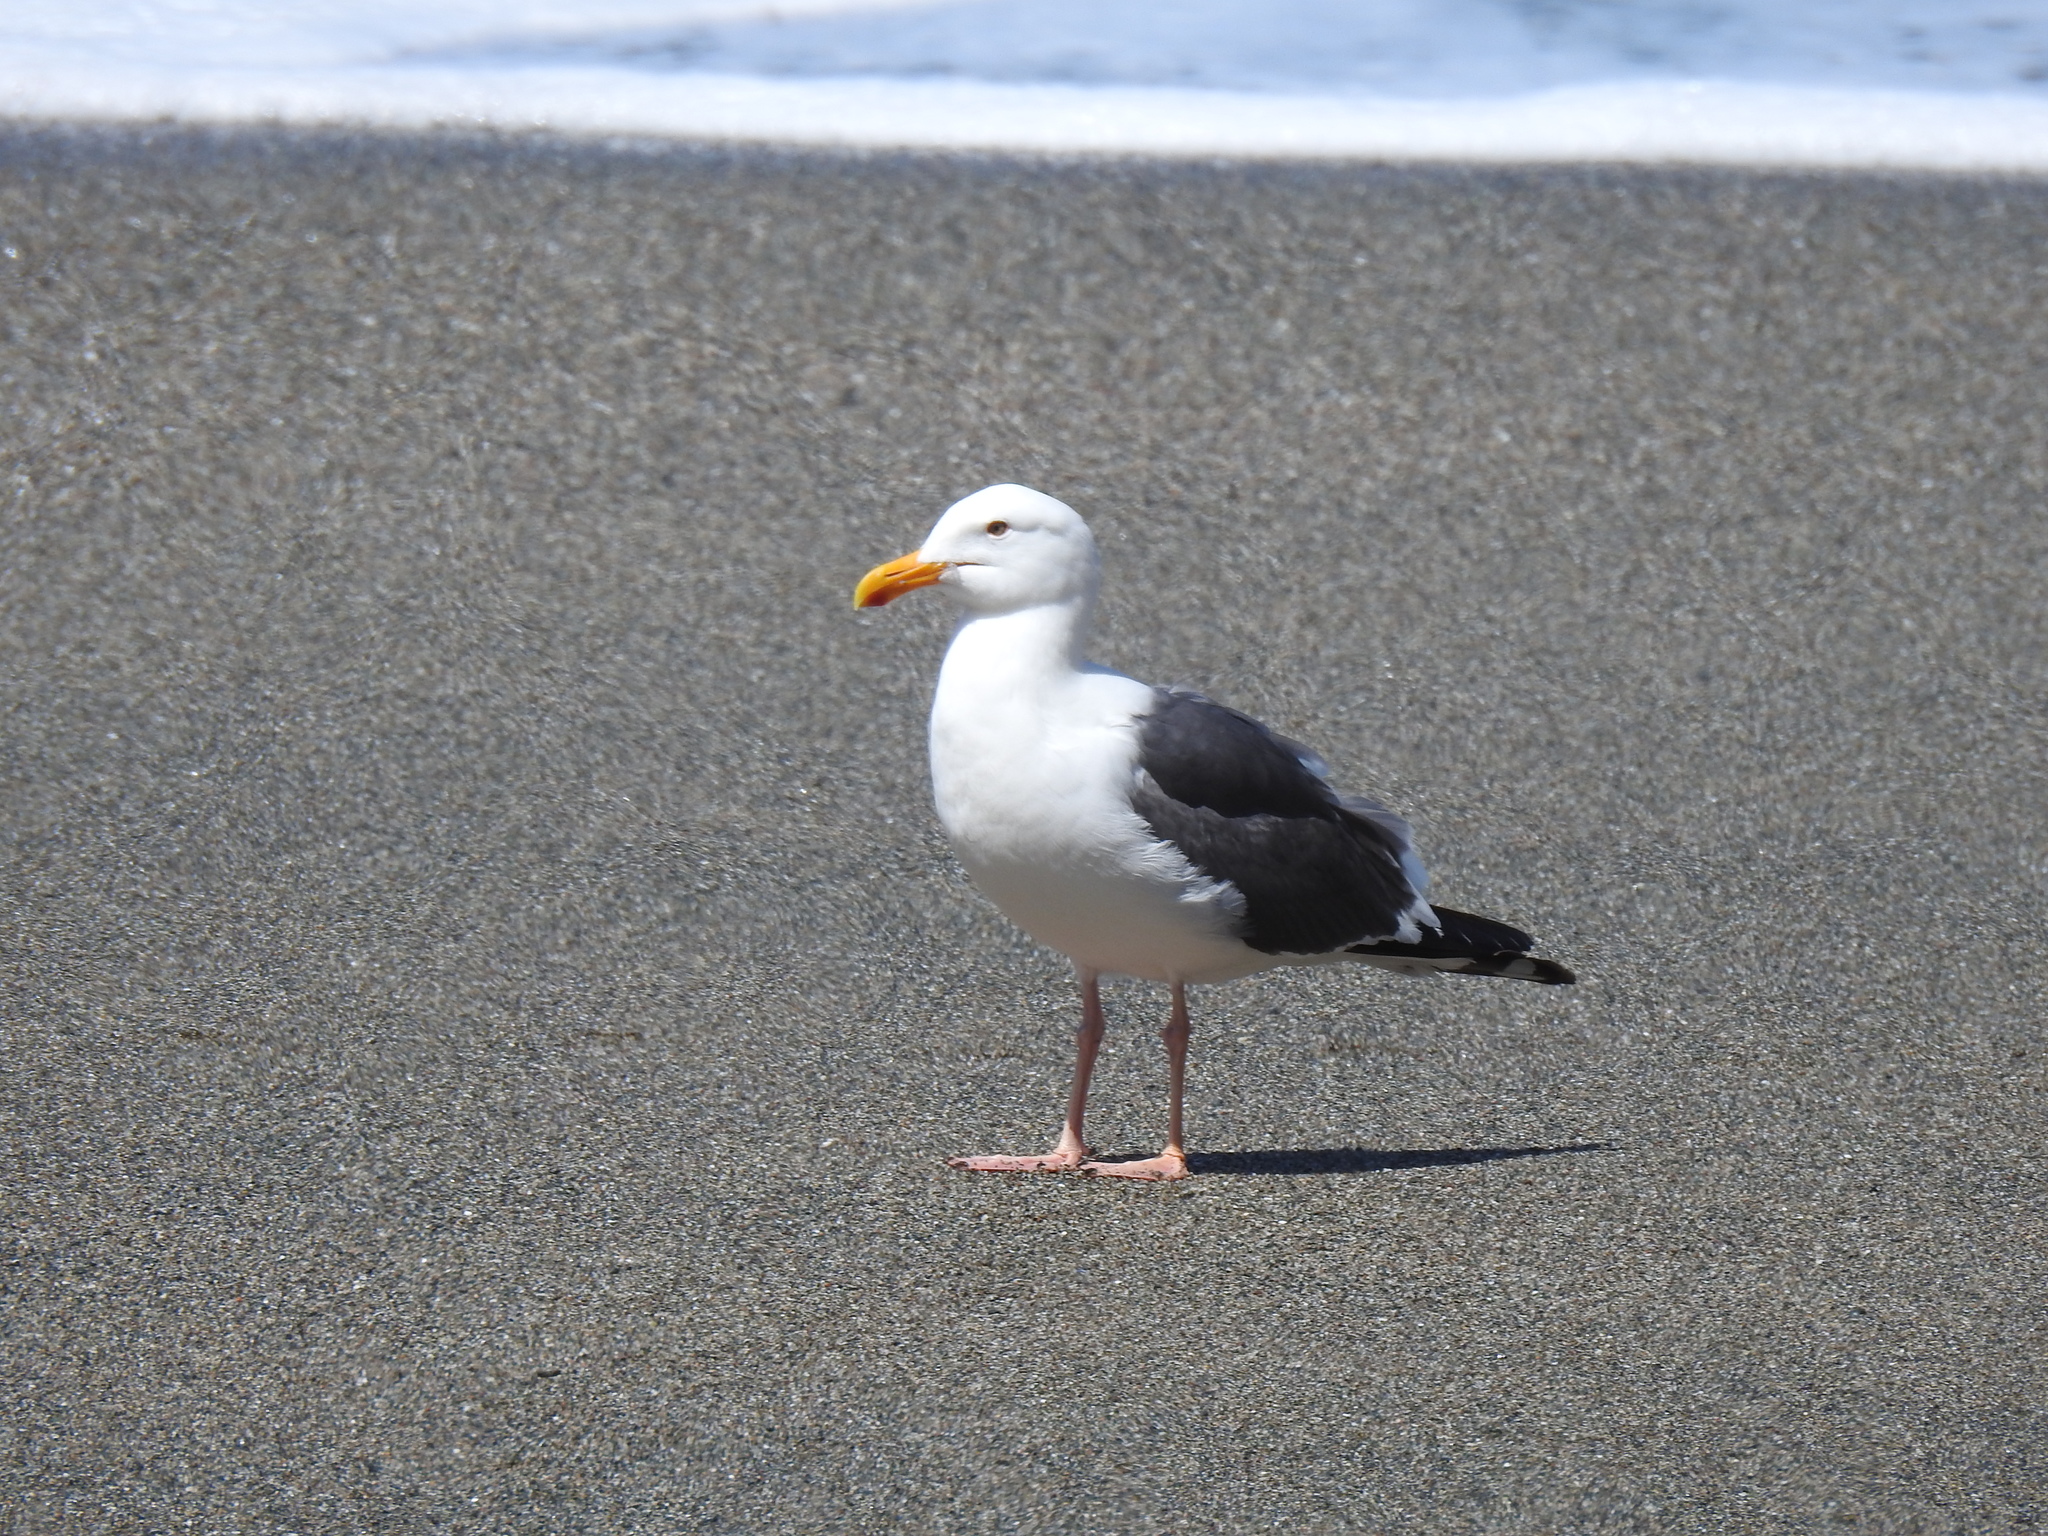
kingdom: Animalia
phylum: Chordata
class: Aves
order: Charadriiformes
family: Laridae
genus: Larus
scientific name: Larus occidentalis
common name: Western gull
